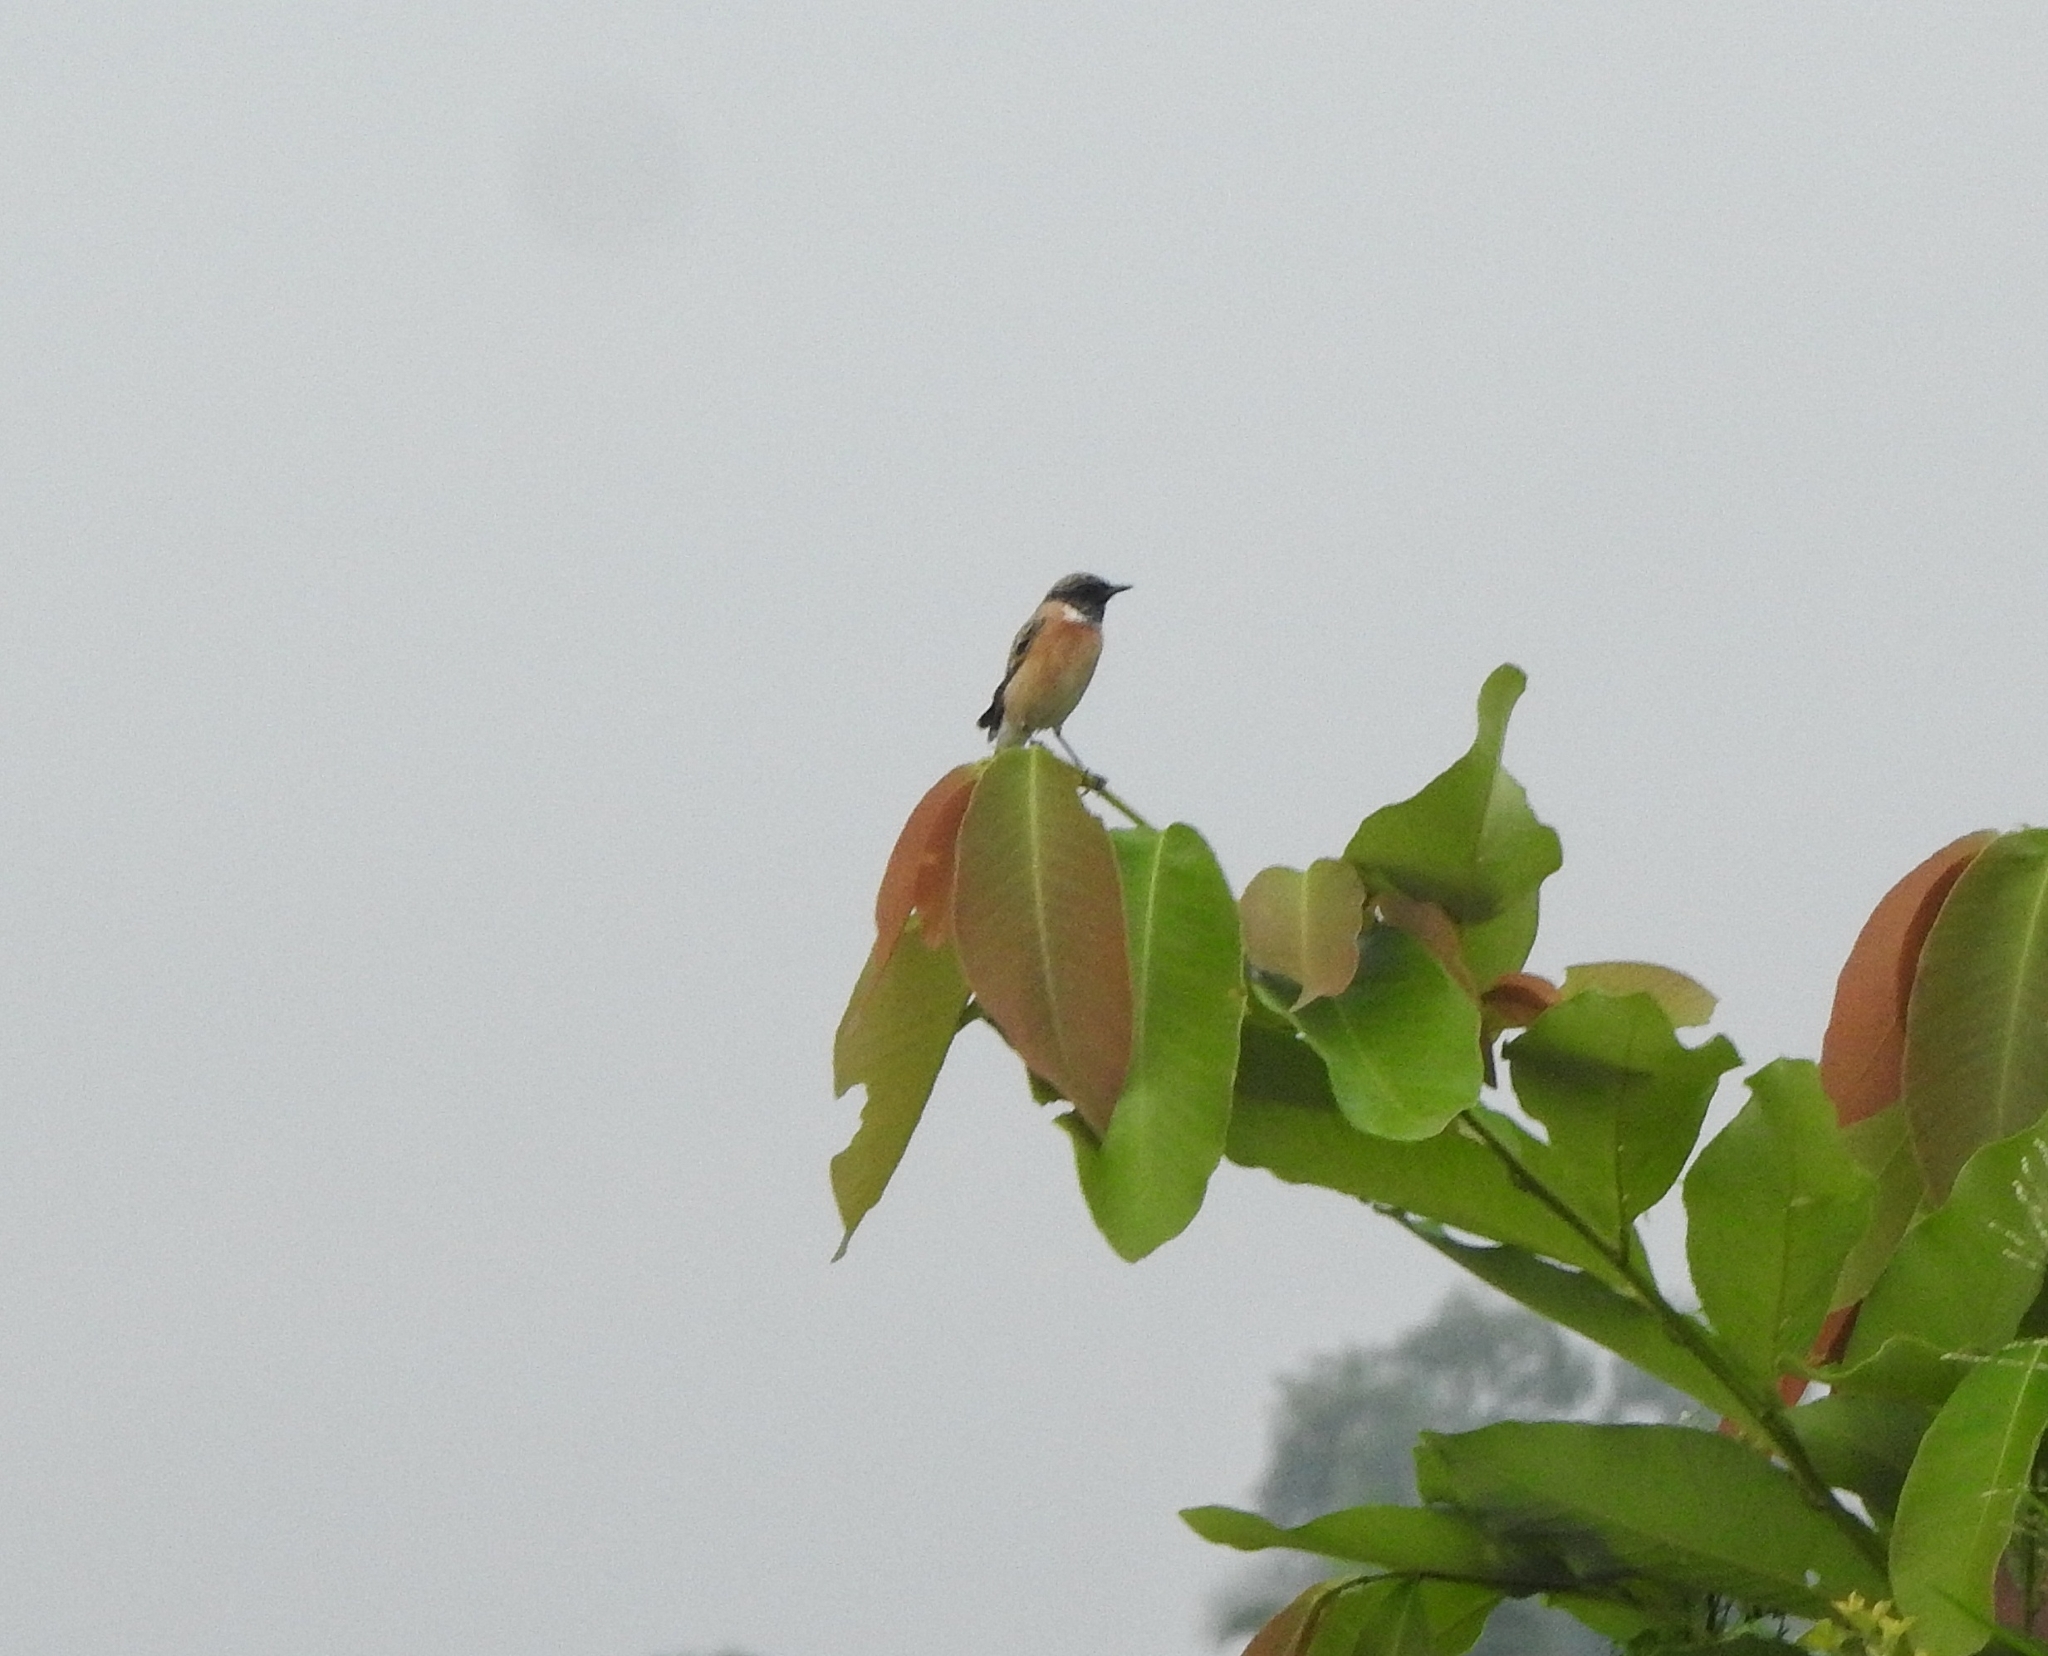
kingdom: Animalia
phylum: Chordata
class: Aves
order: Passeriformes
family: Muscicapidae
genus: Saxicola
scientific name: Saxicola maurus
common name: Siberian stonechat
